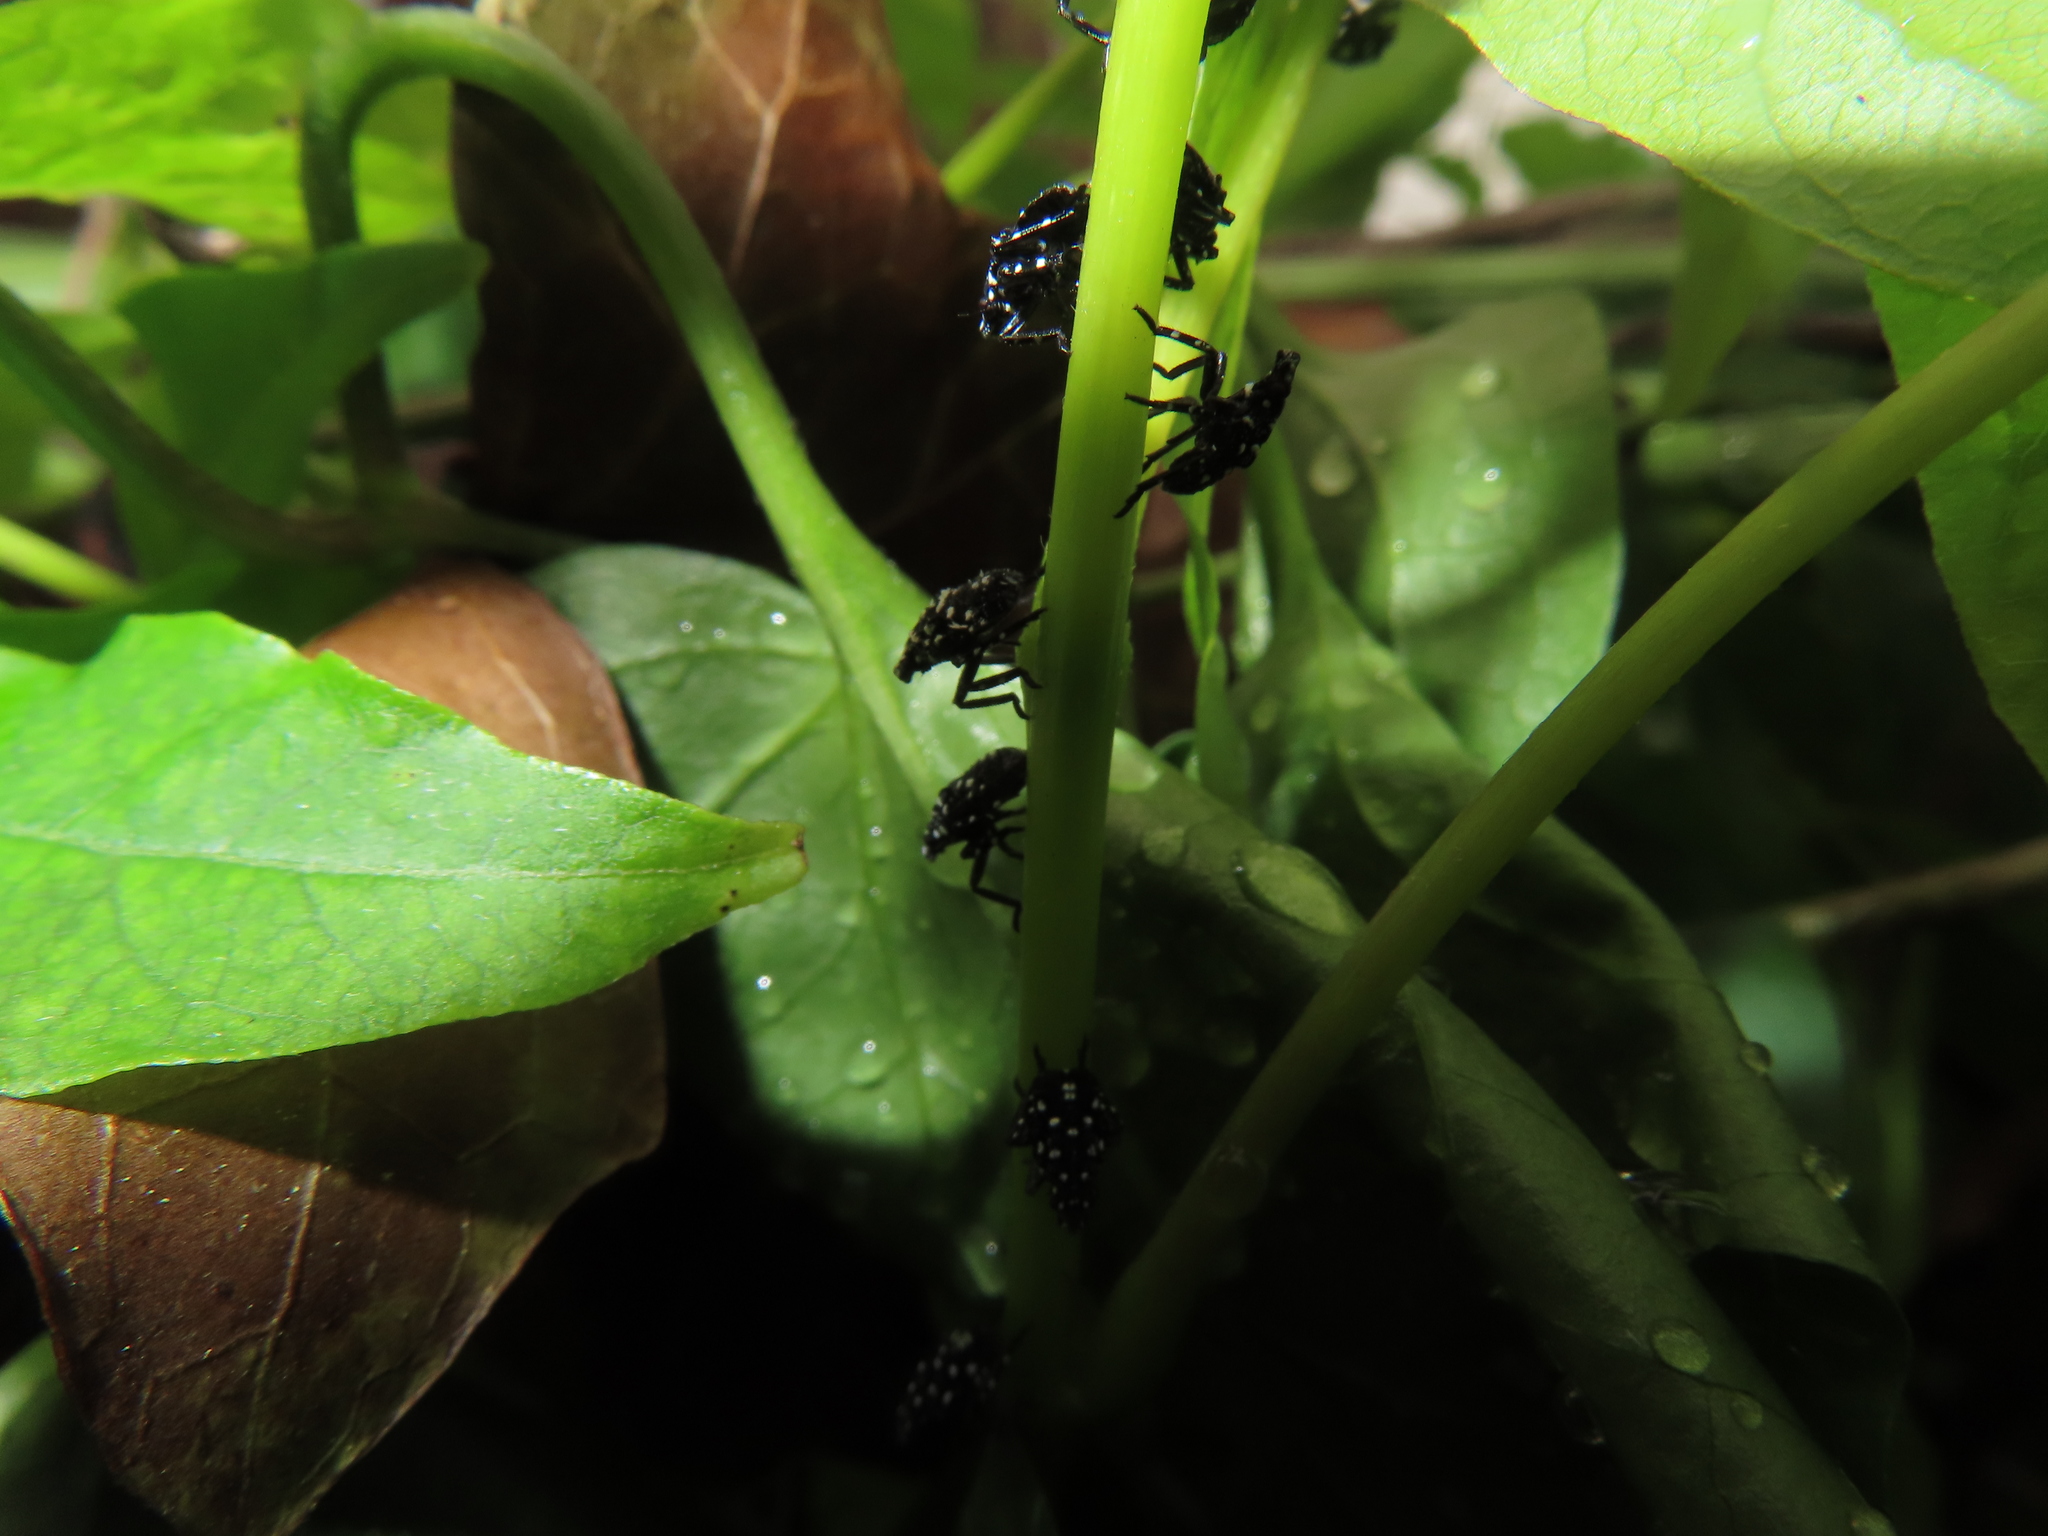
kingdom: Animalia
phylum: Arthropoda
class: Insecta
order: Hemiptera
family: Fulgoridae
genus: Lycorma
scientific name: Lycorma delicatula
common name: Spotted lanternfly
